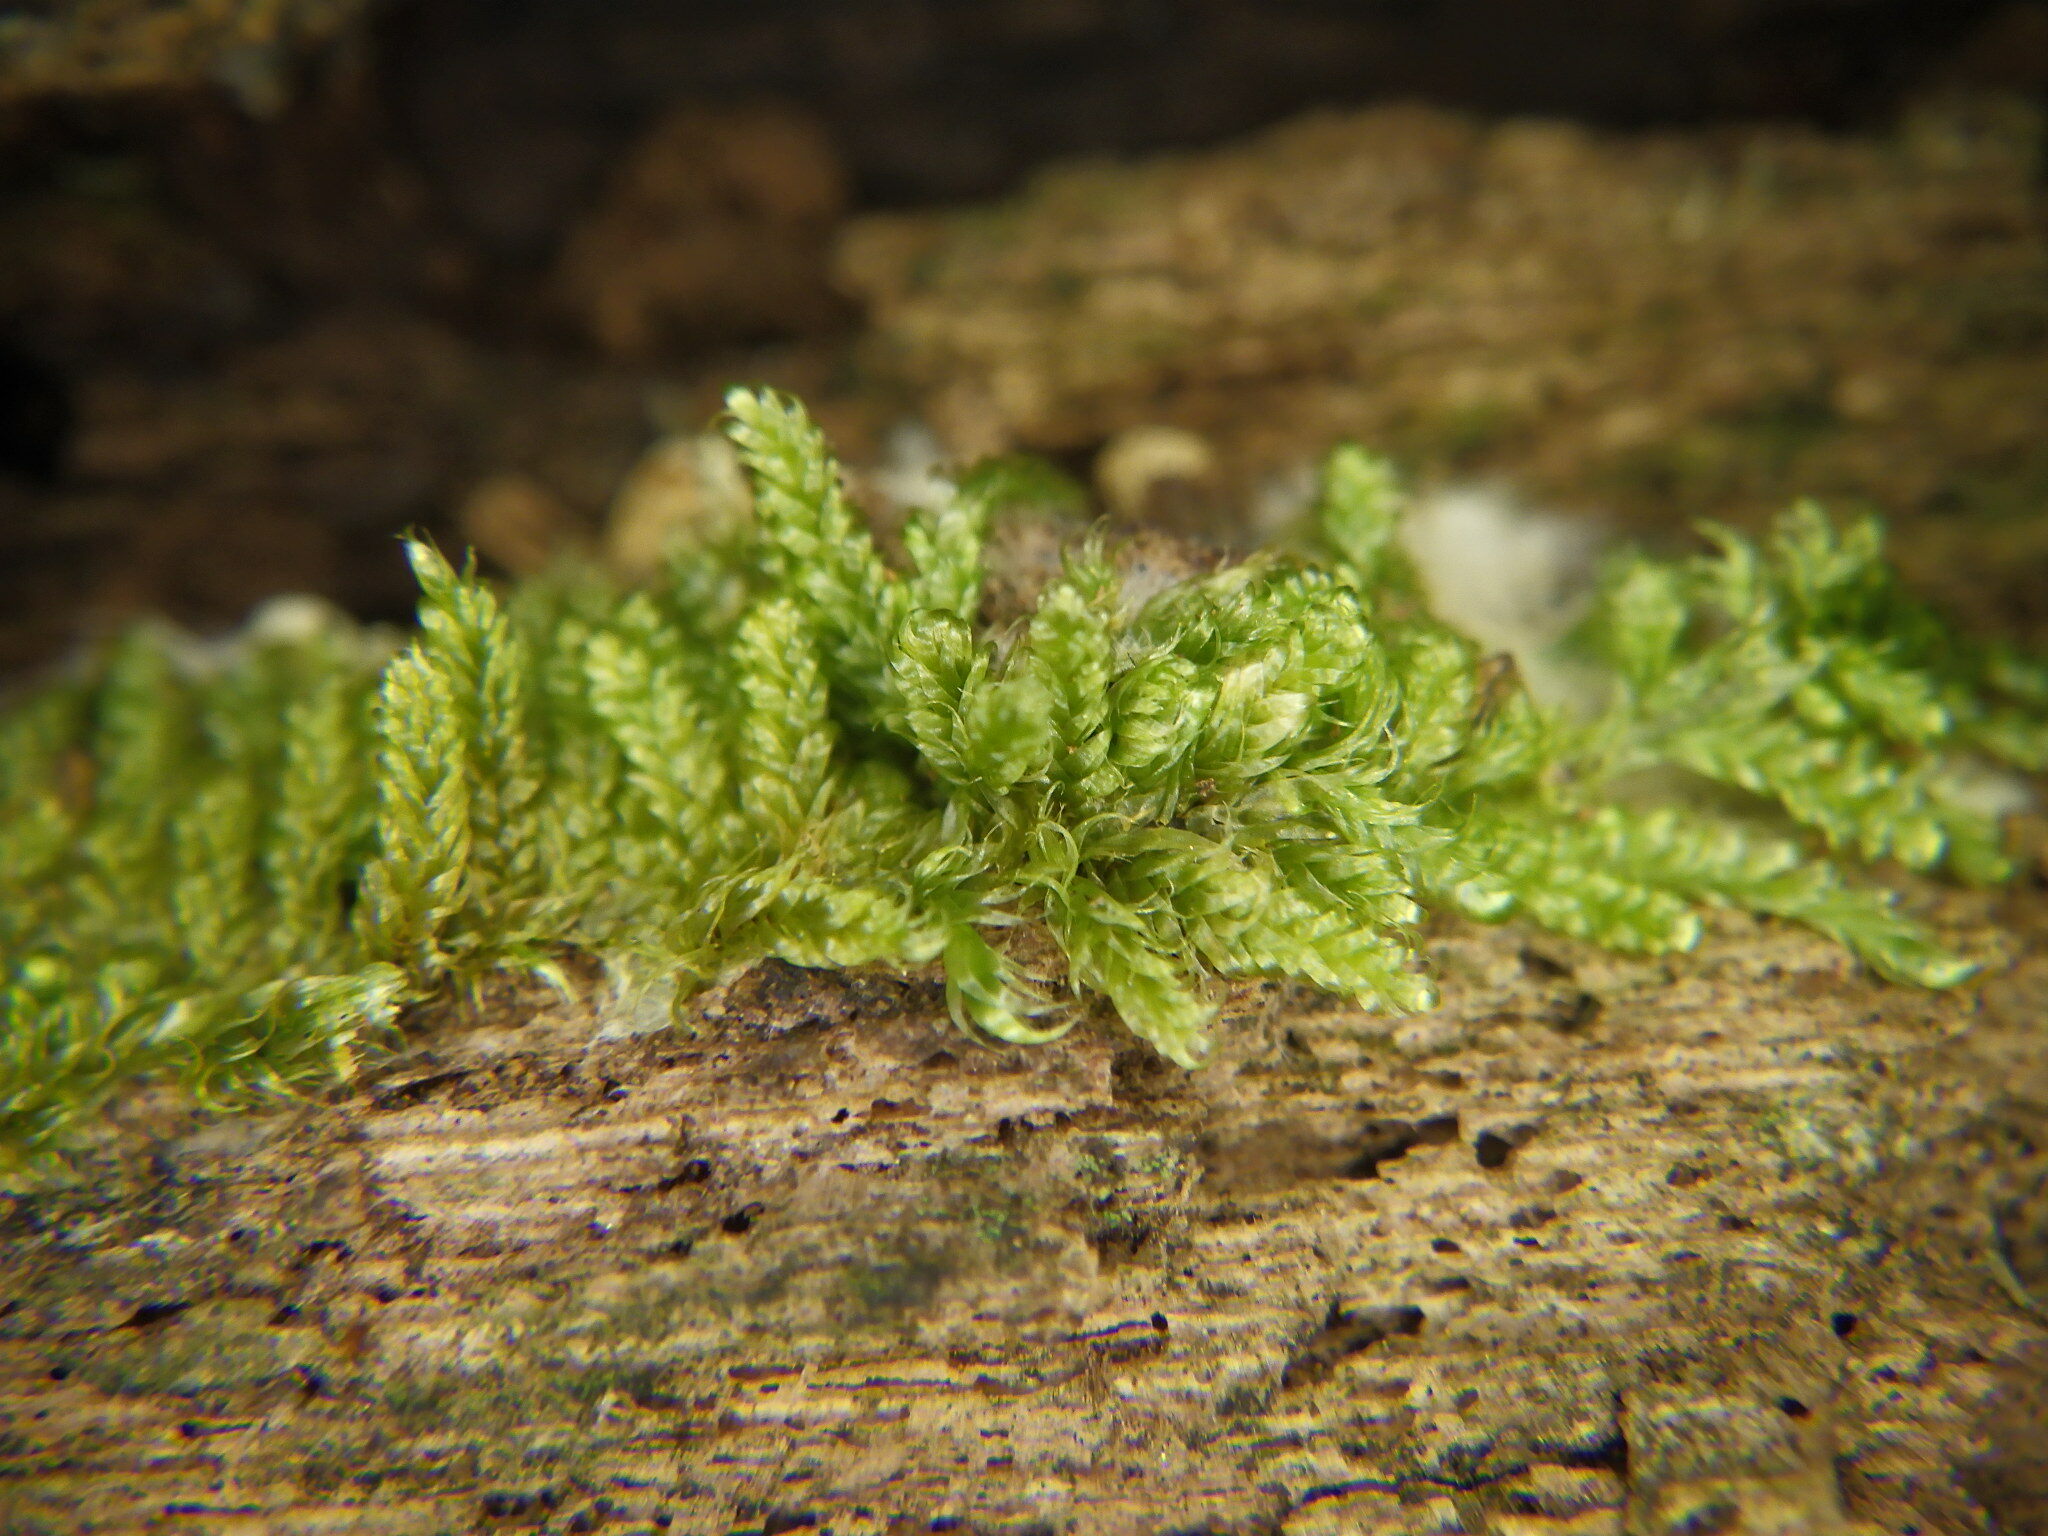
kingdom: Plantae
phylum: Bryophyta
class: Bryopsida
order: Hypnales
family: Callicladiaceae
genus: Callicladium
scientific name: Callicladium imponens
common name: Brocade moss
